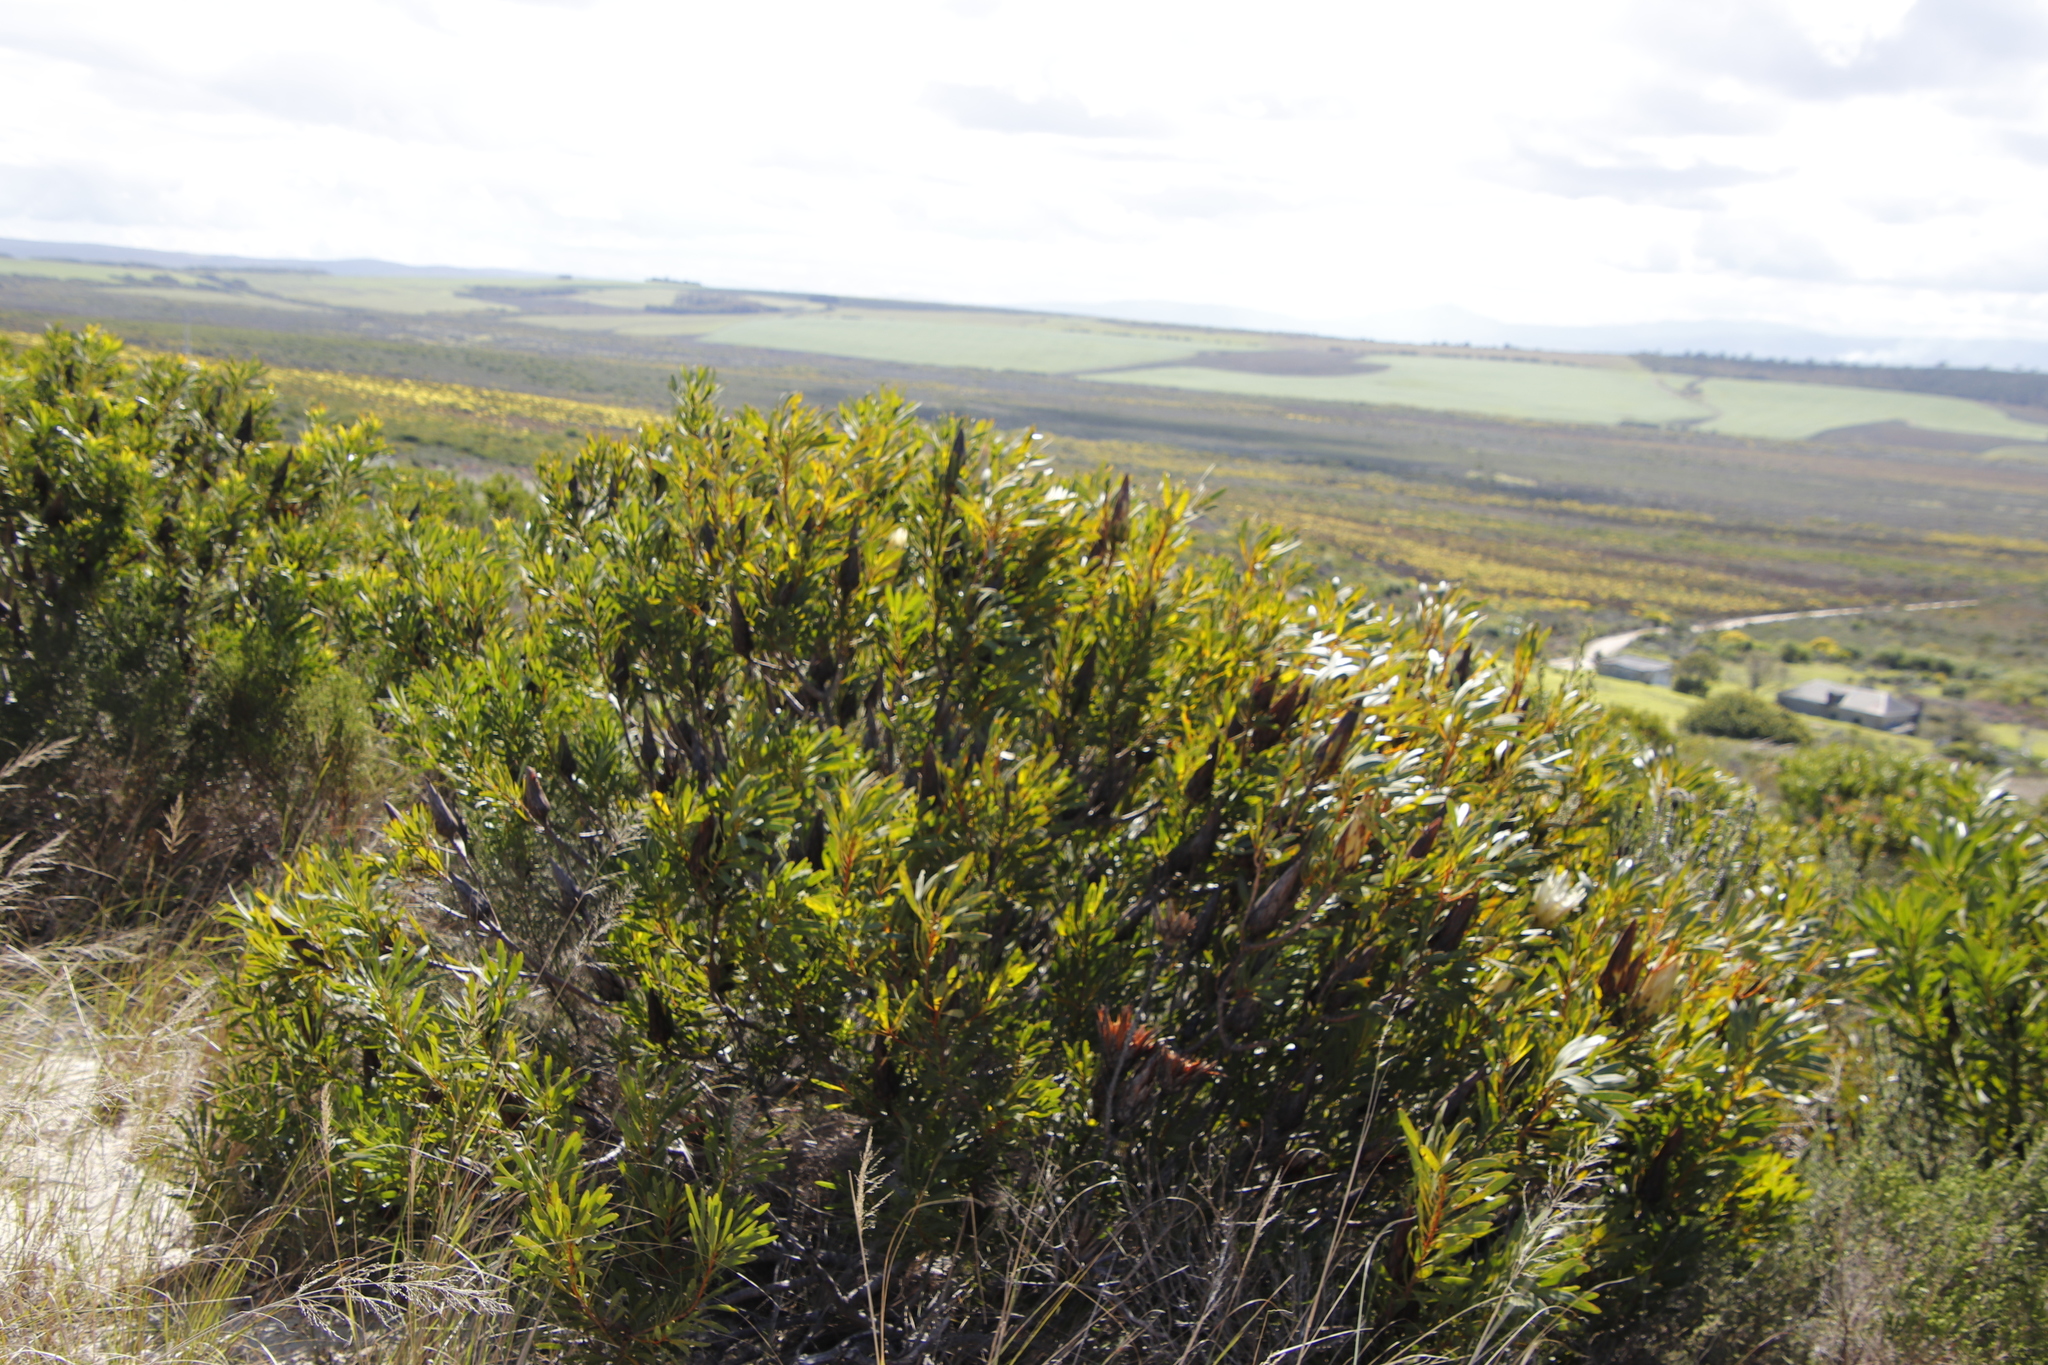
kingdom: Plantae
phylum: Tracheophyta
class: Magnoliopsida
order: Proteales
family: Proteaceae
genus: Protea
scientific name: Protea repens
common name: Sugarbush
